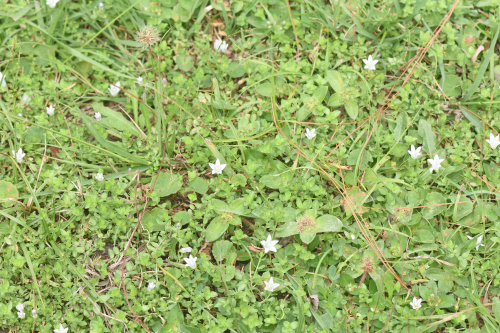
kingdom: Plantae
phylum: Tracheophyta
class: Magnoliopsida
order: Asterales
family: Campanulaceae
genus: Wahlenbergia
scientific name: Wahlenbergia procumbens
